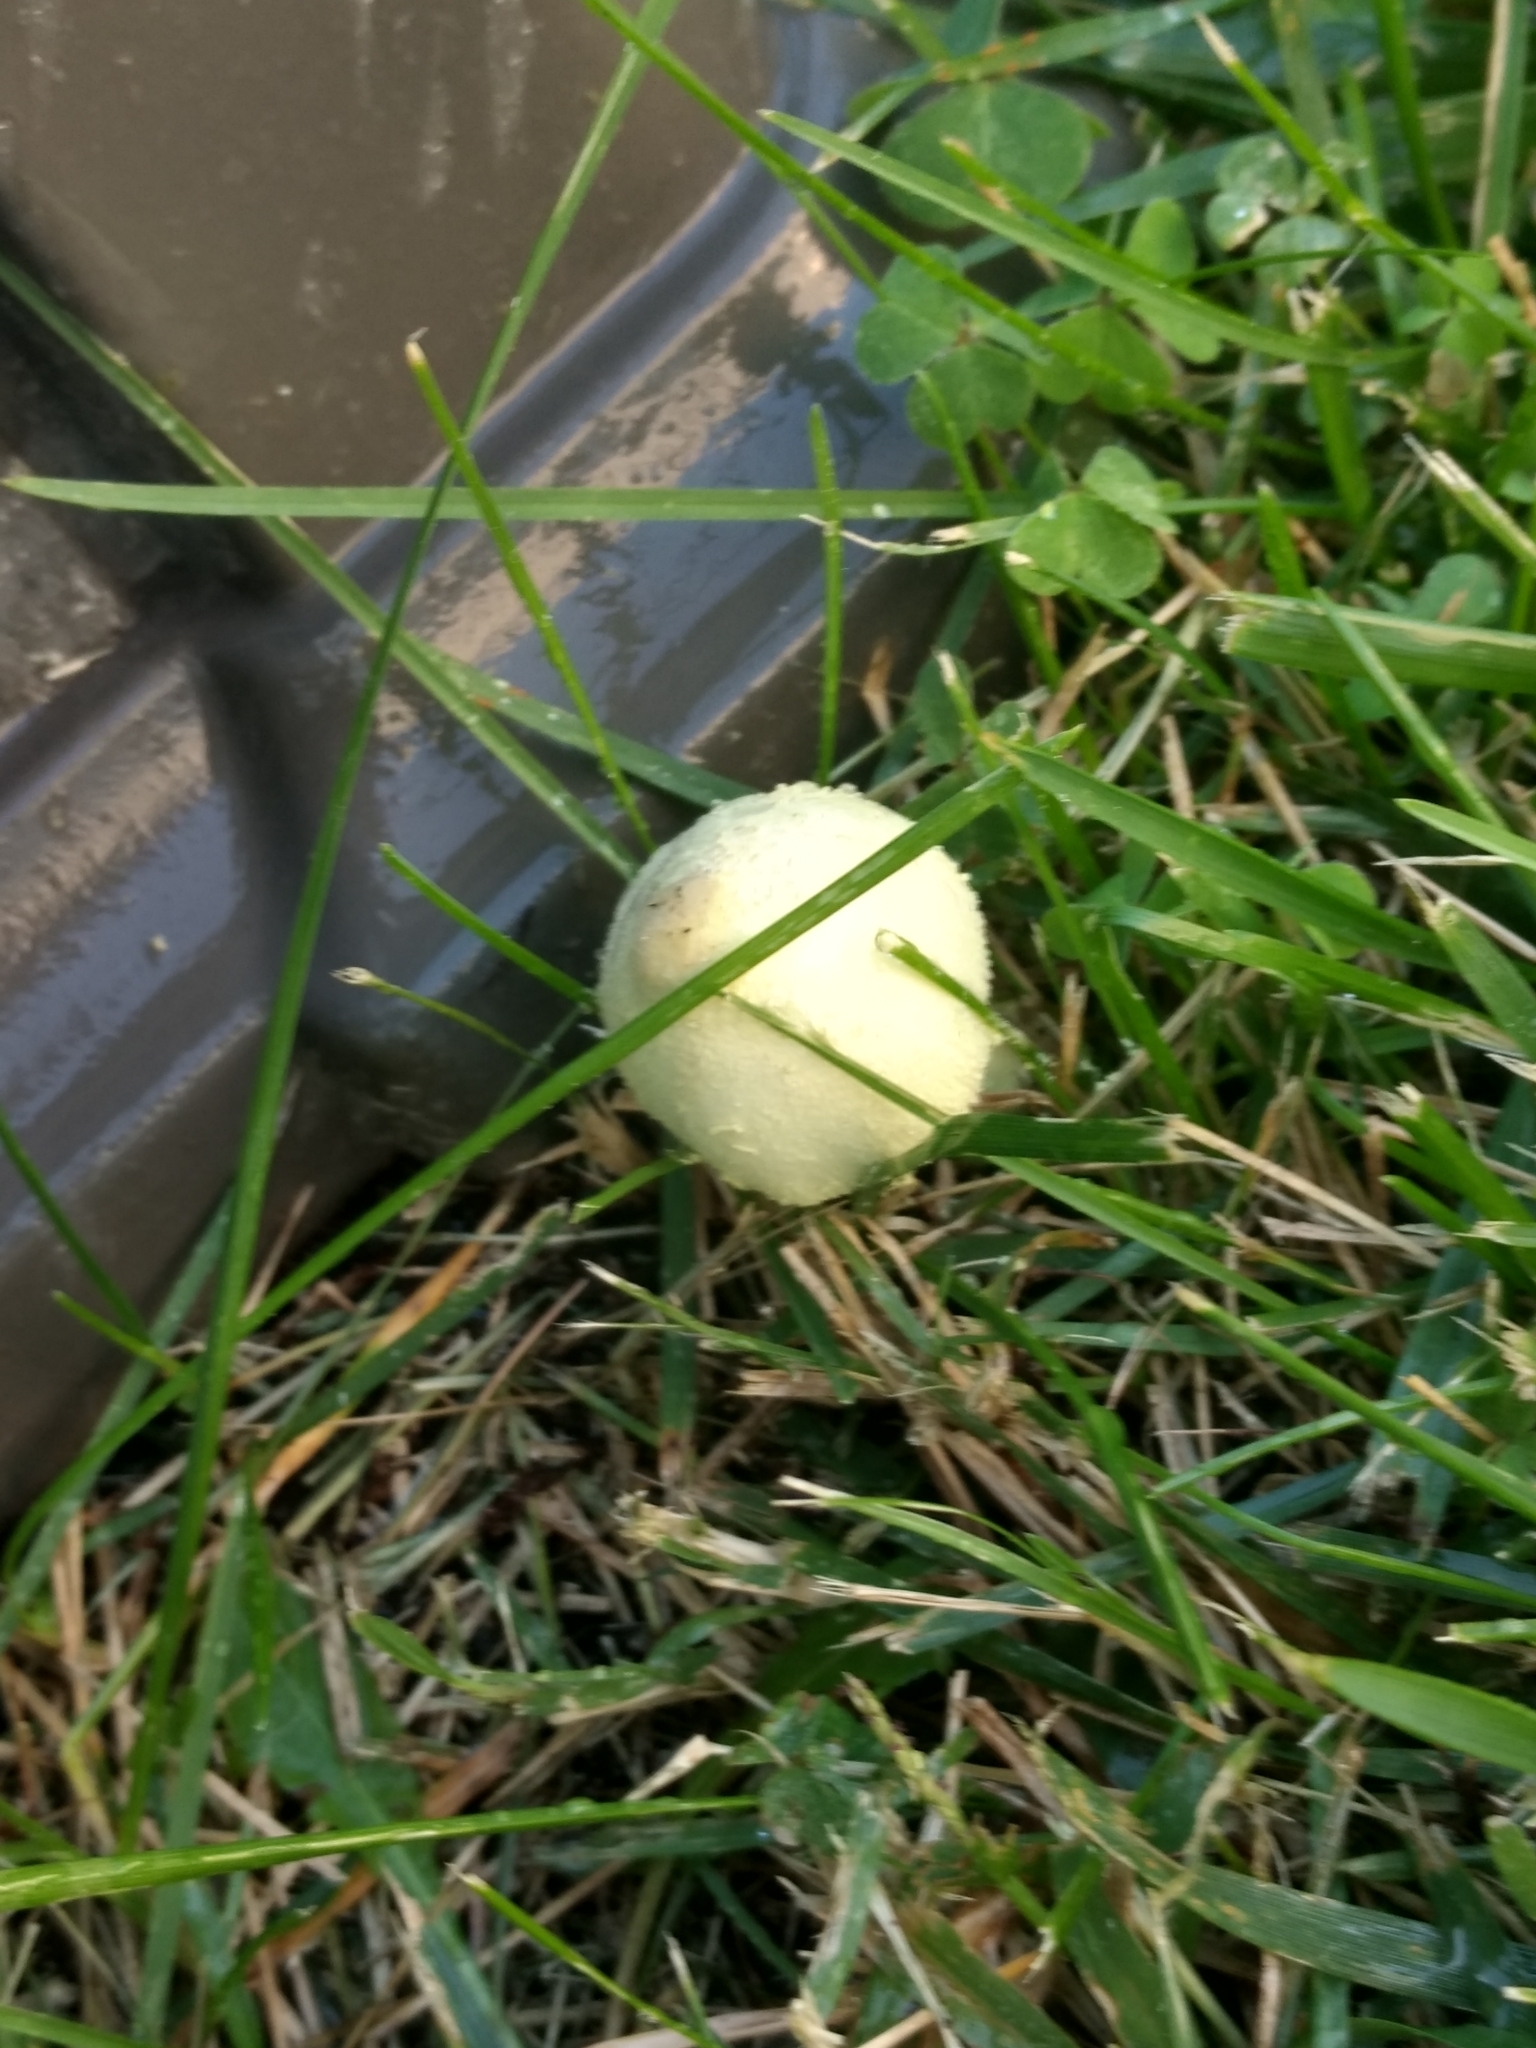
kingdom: Fungi
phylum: Basidiomycota
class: Agaricomycetes
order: Agaricales
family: Agaricaceae
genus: Leucocoprinus
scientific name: Leucocoprinus birnbaumii
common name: Plantpot dapperling
